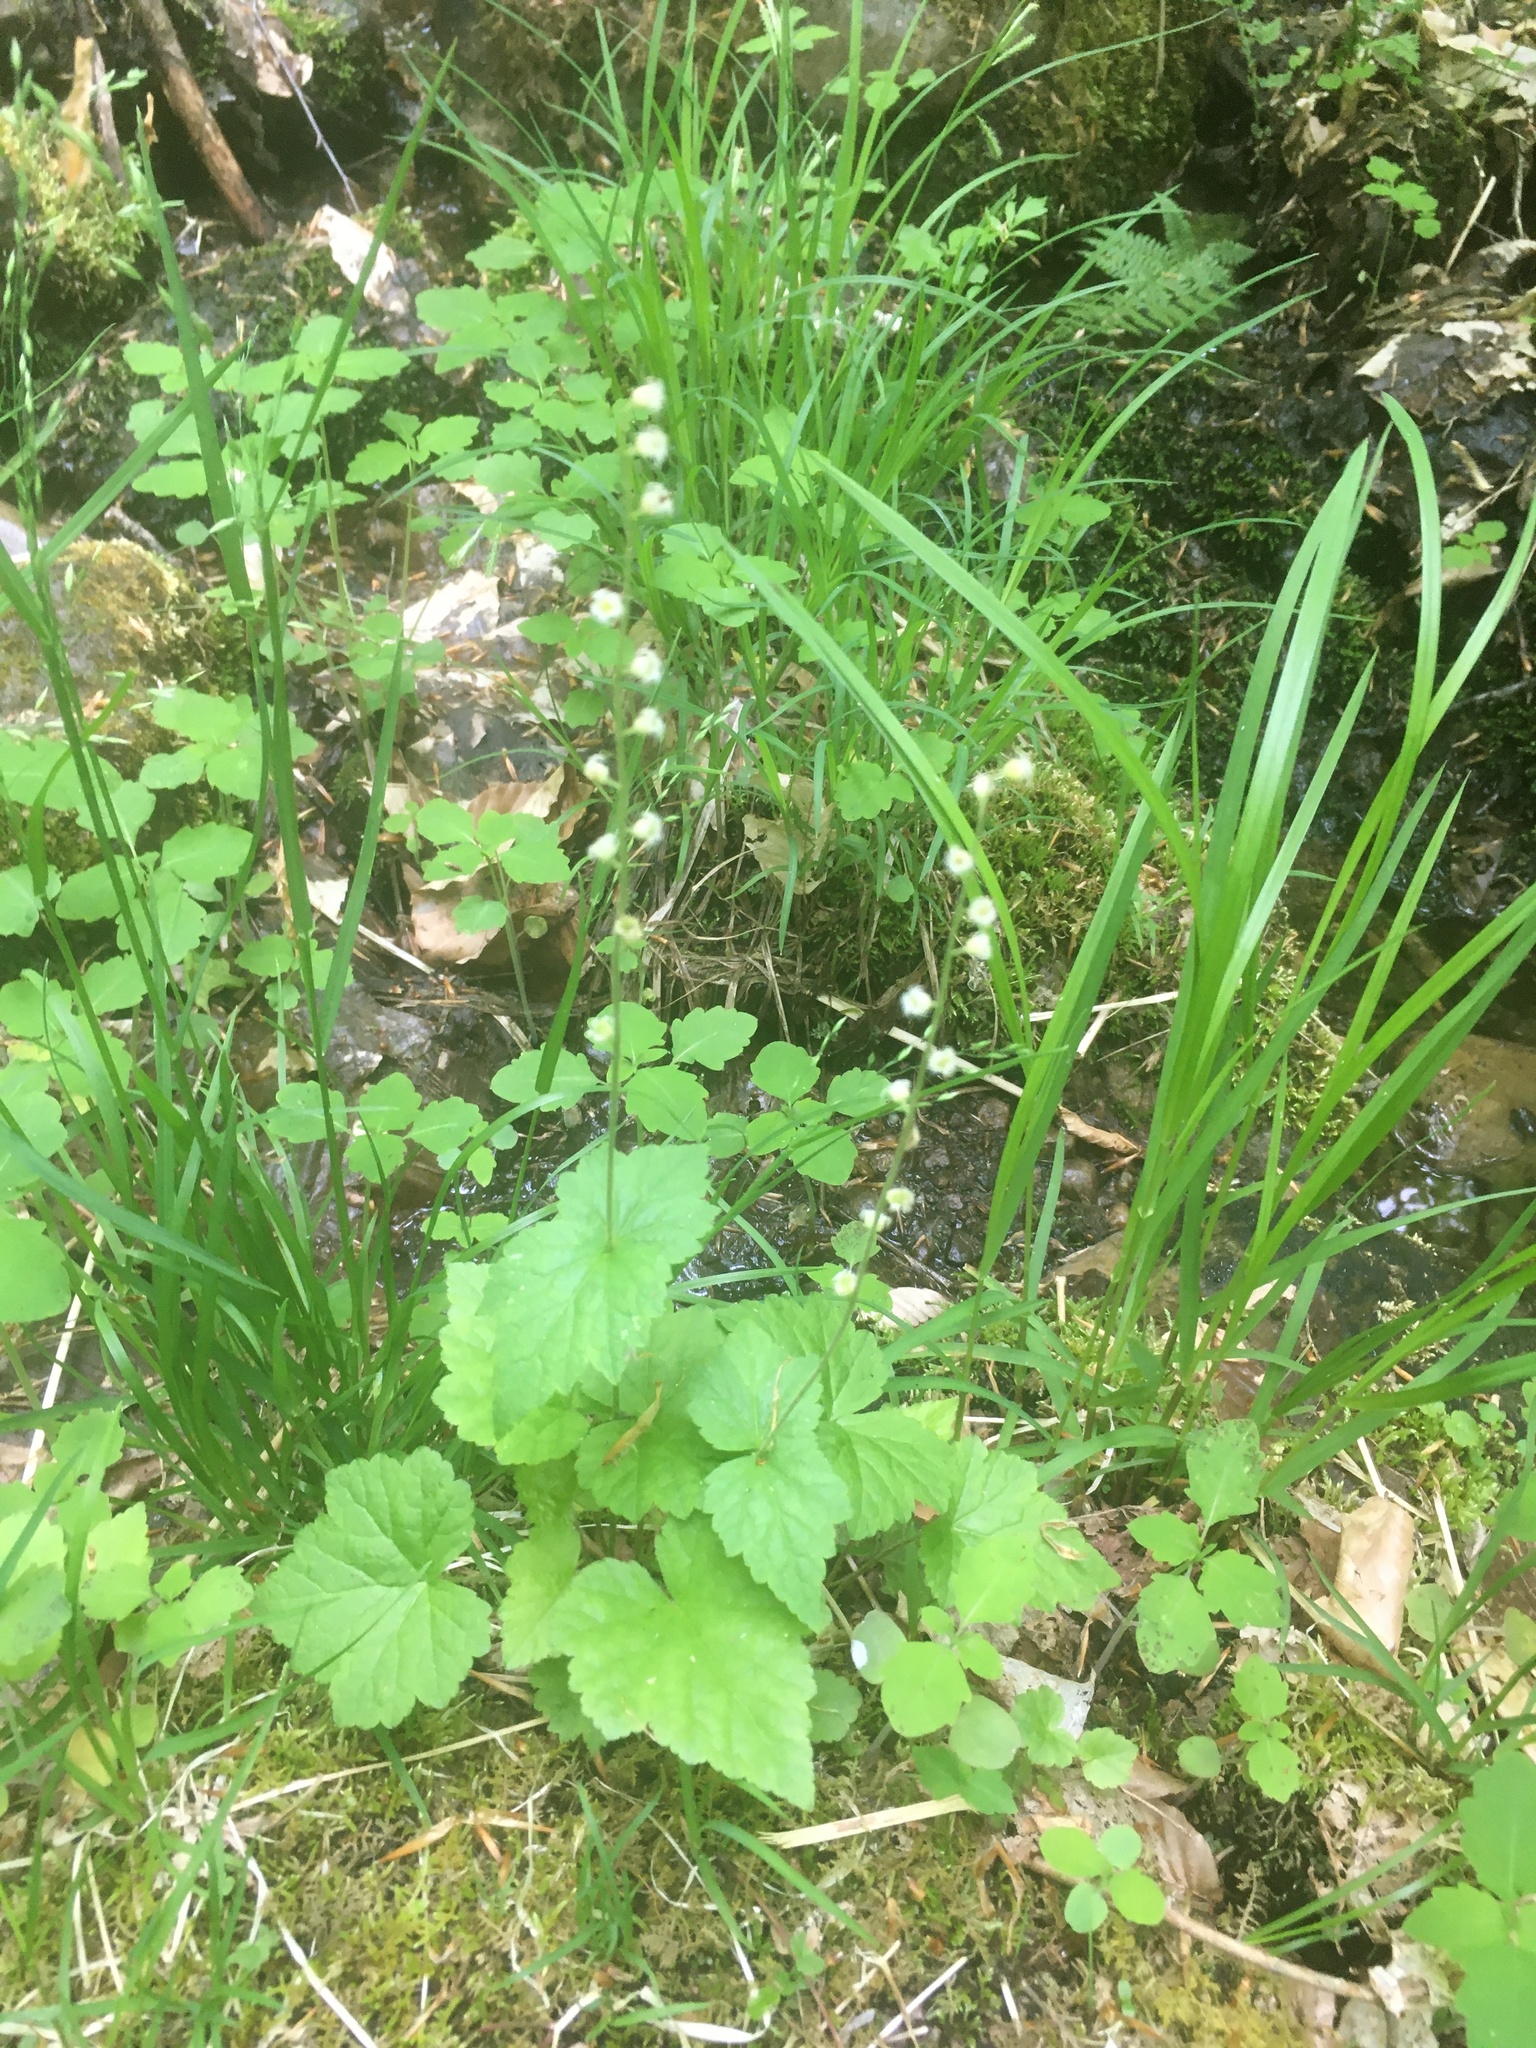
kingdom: Plantae
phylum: Tracheophyta
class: Magnoliopsida
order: Saxifragales
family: Saxifragaceae
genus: Mitella
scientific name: Mitella diphylla
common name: Coolwort
